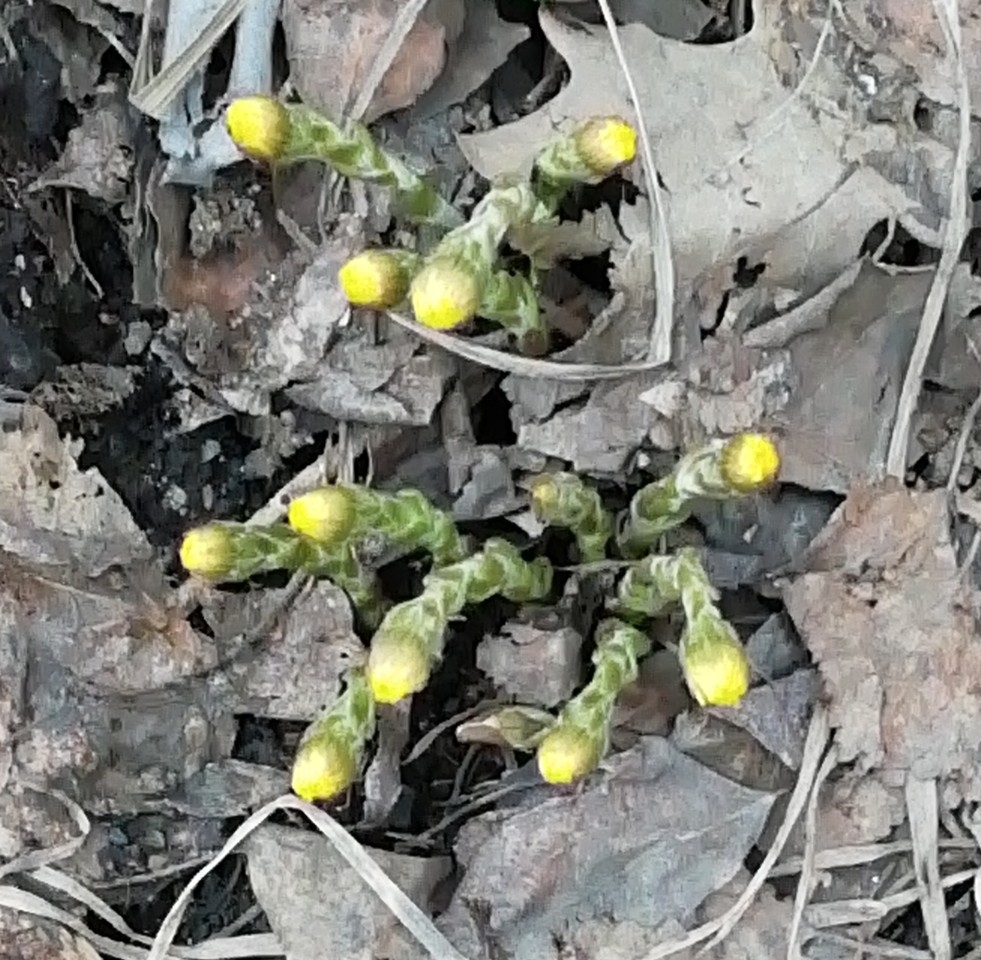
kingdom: Plantae
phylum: Tracheophyta
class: Magnoliopsida
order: Asterales
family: Asteraceae
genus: Tussilago
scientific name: Tussilago farfara
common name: Coltsfoot
